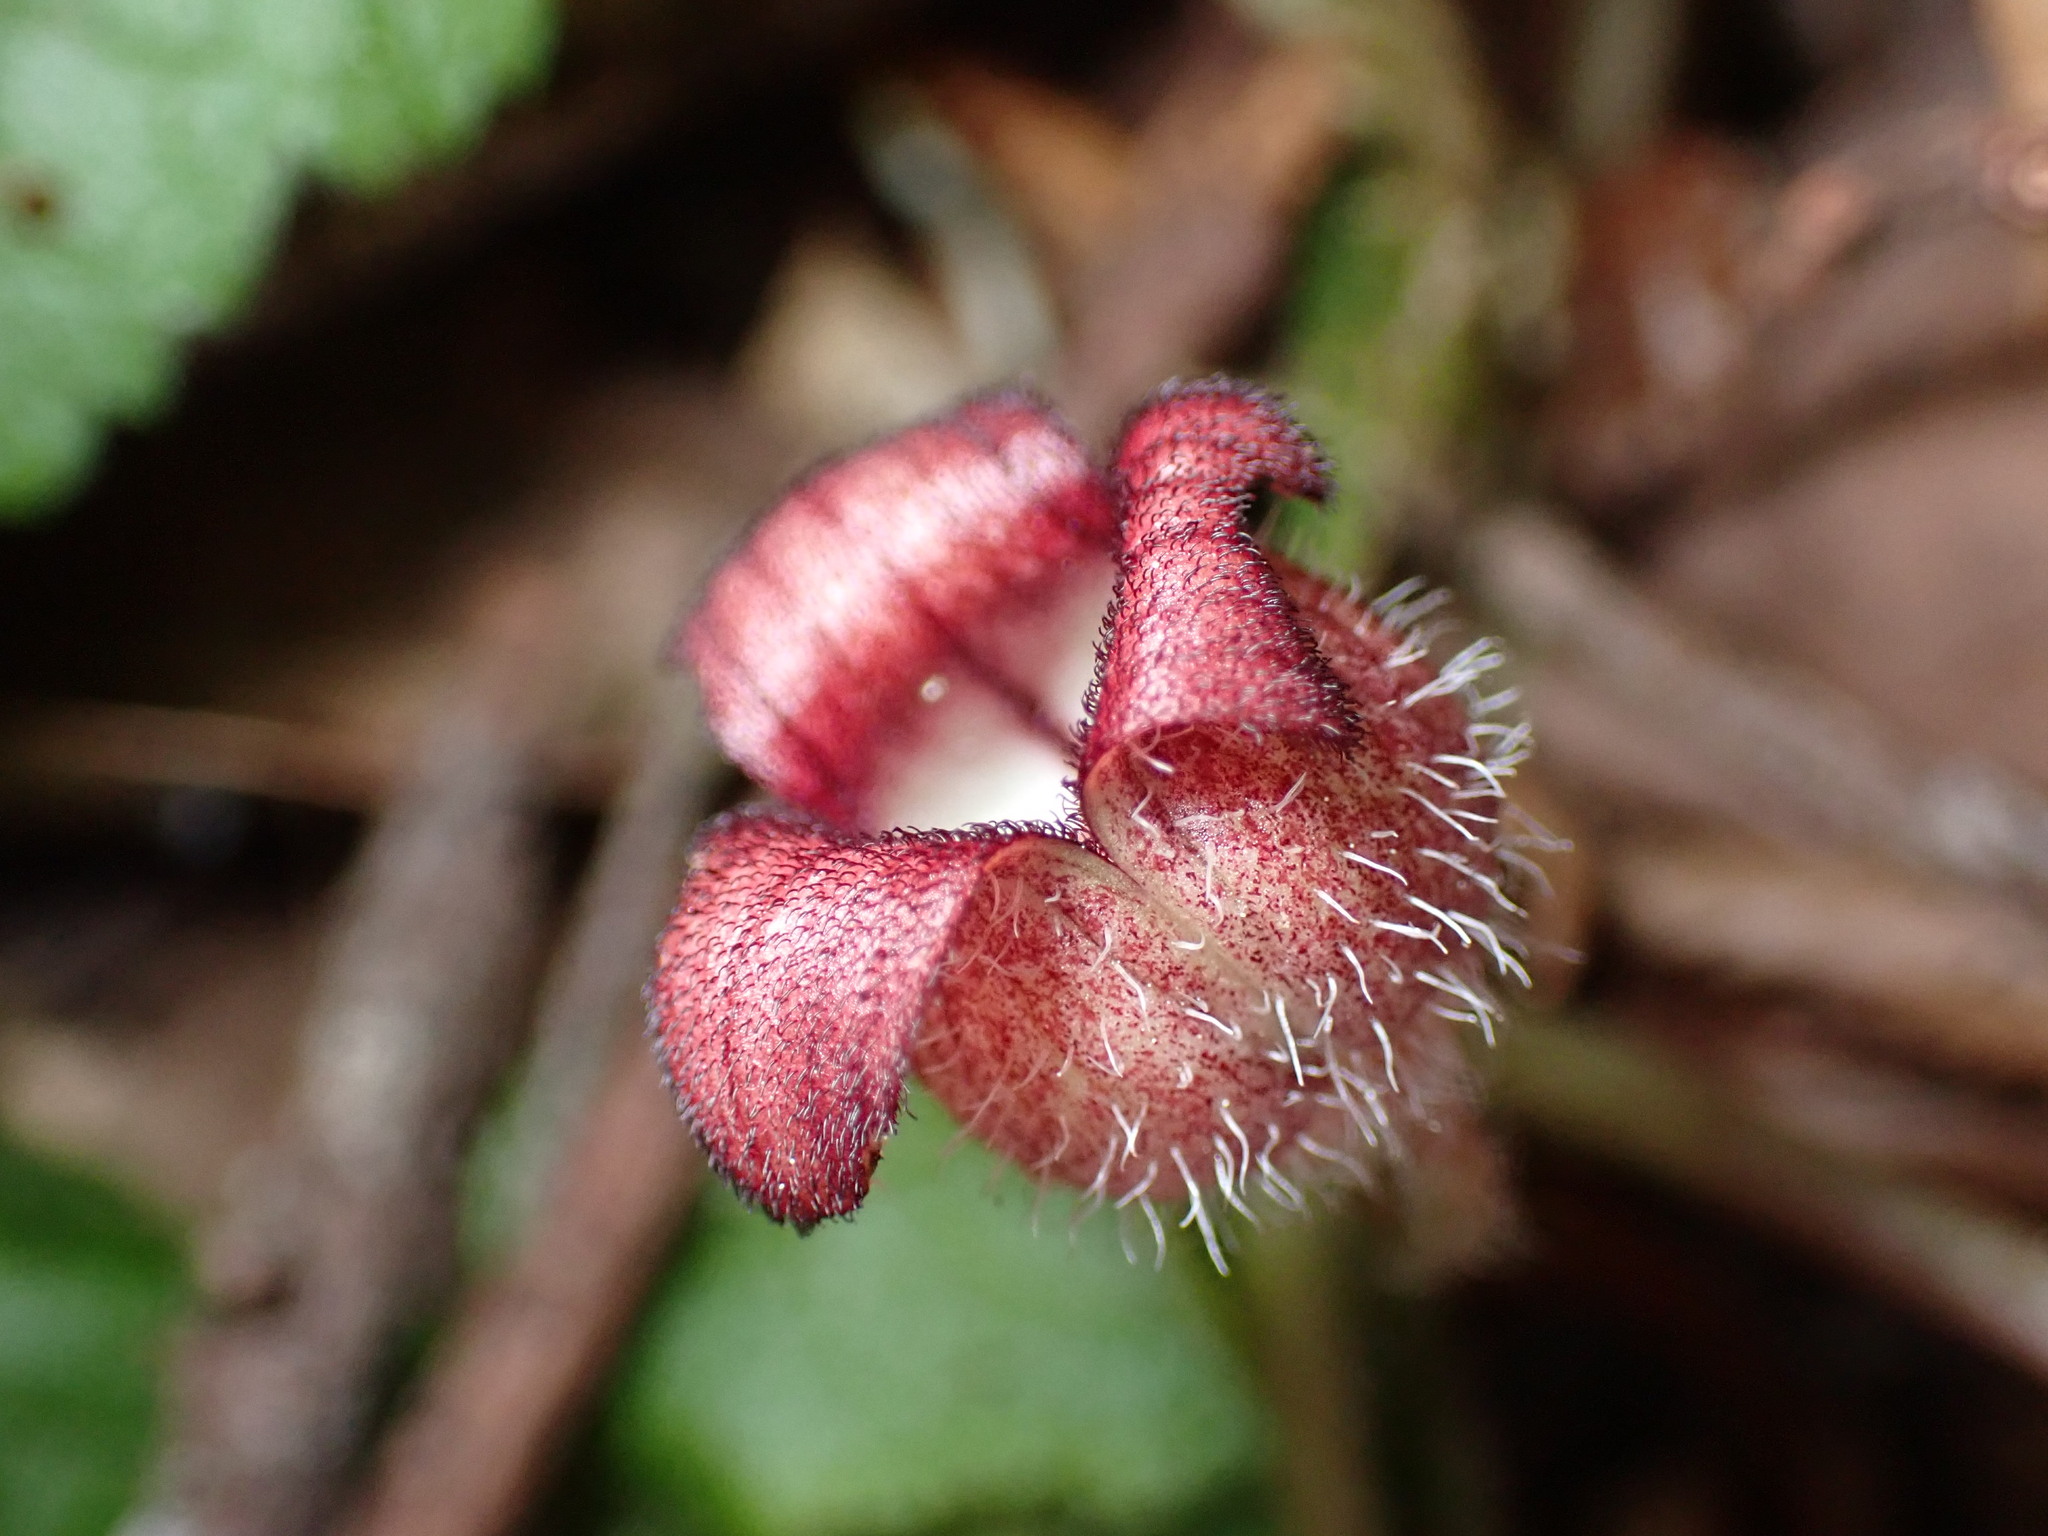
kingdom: Plantae
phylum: Tracheophyta
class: Magnoliopsida
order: Piperales
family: Aristolochiaceae
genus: Asarum
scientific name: Asarum caudatum
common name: Wild ginger
